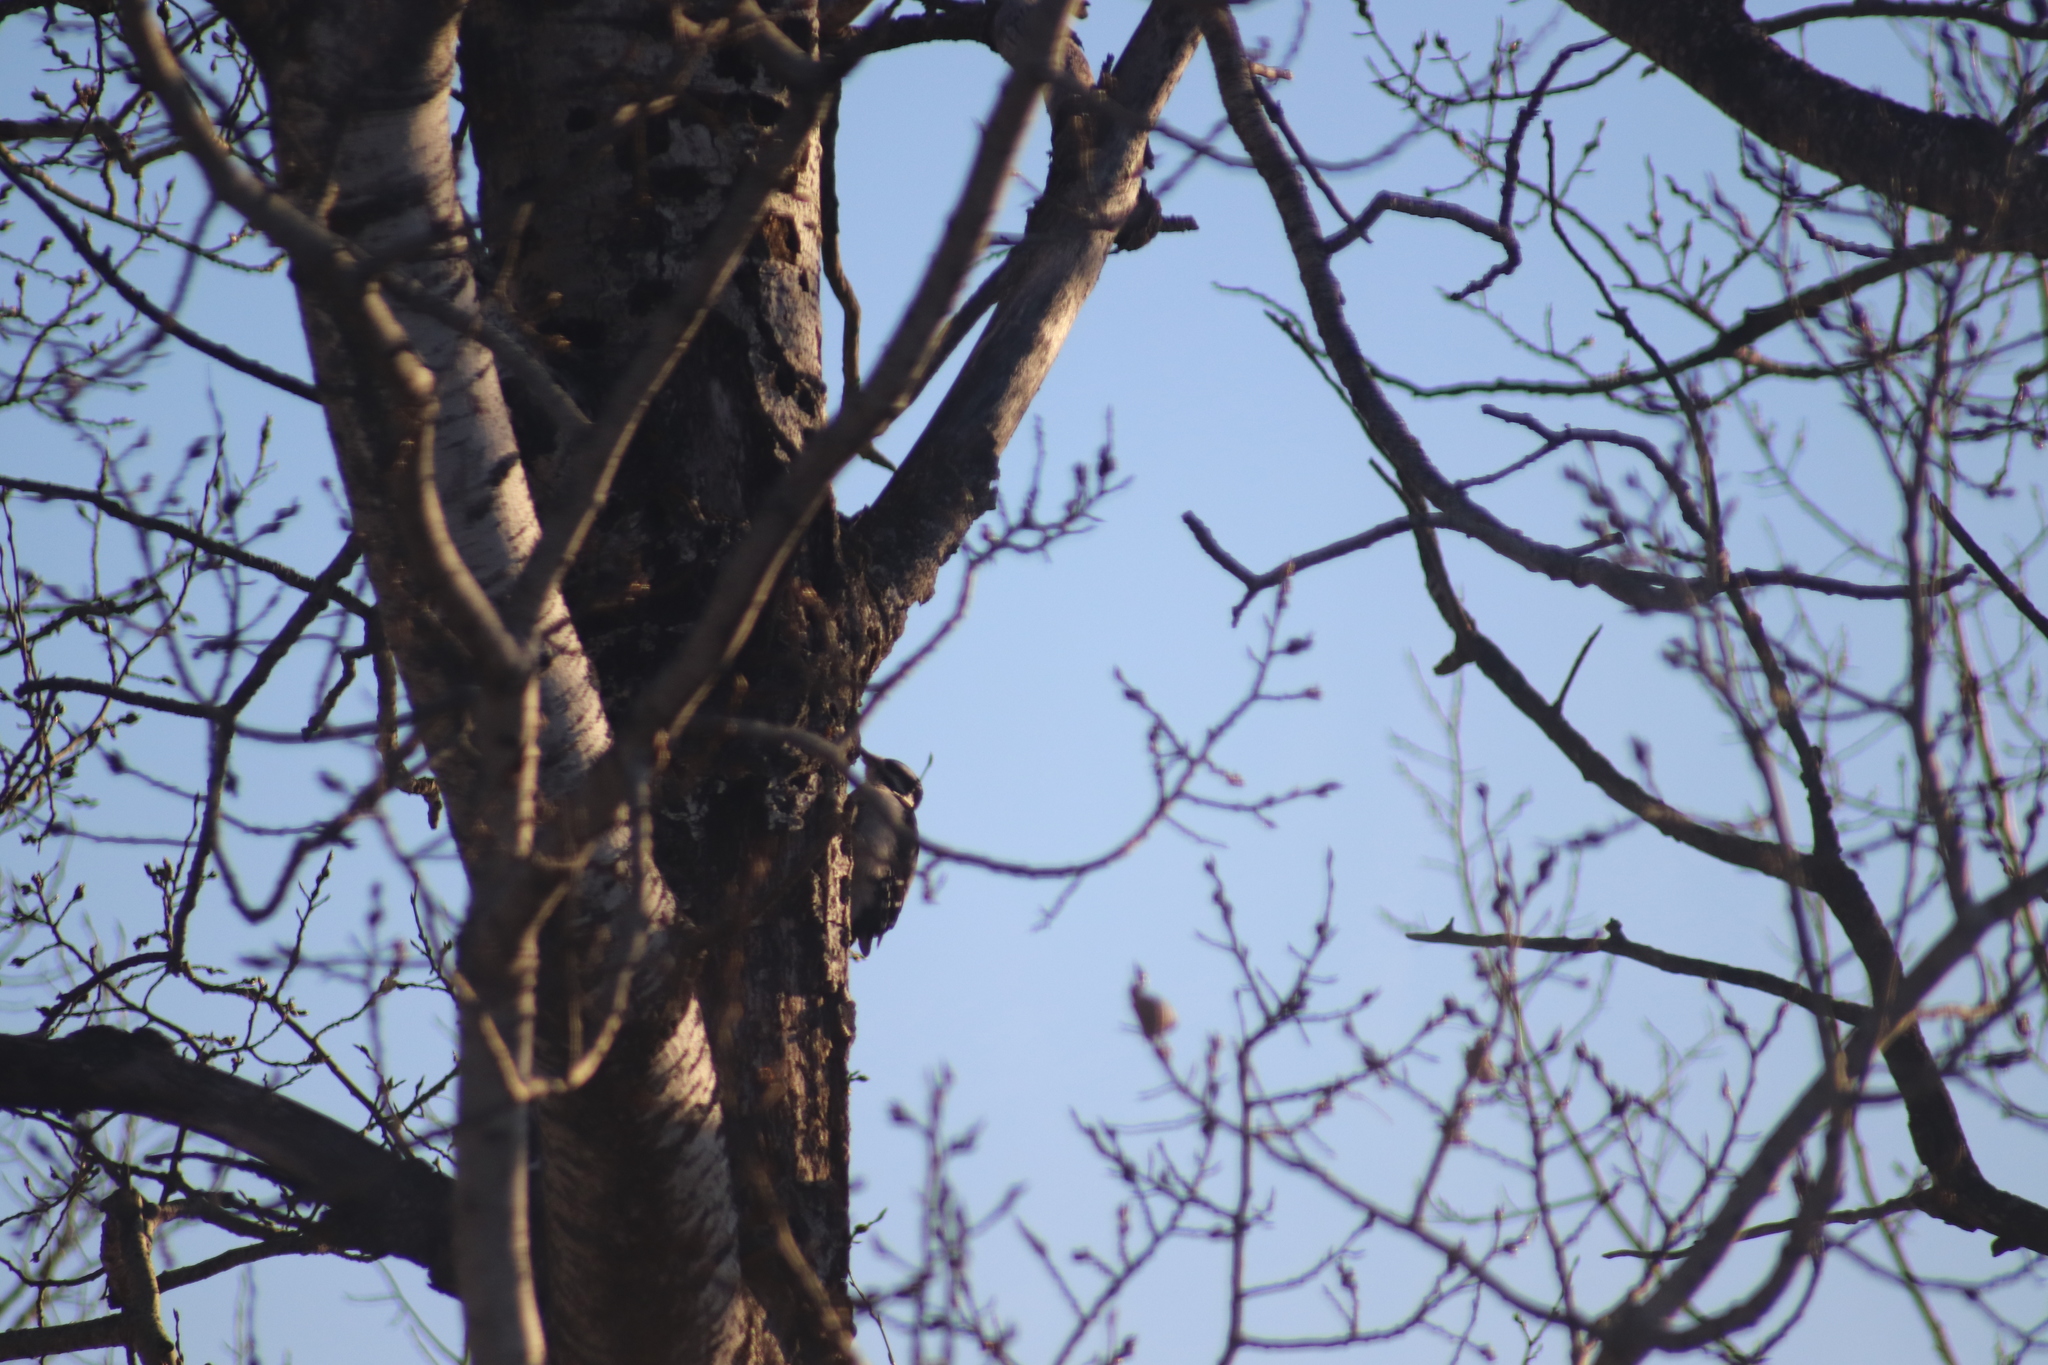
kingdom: Animalia
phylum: Chordata
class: Aves
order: Piciformes
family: Picidae
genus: Leuconotopicus
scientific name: Leuconotopicus villosus
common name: Hairy woodpecker
